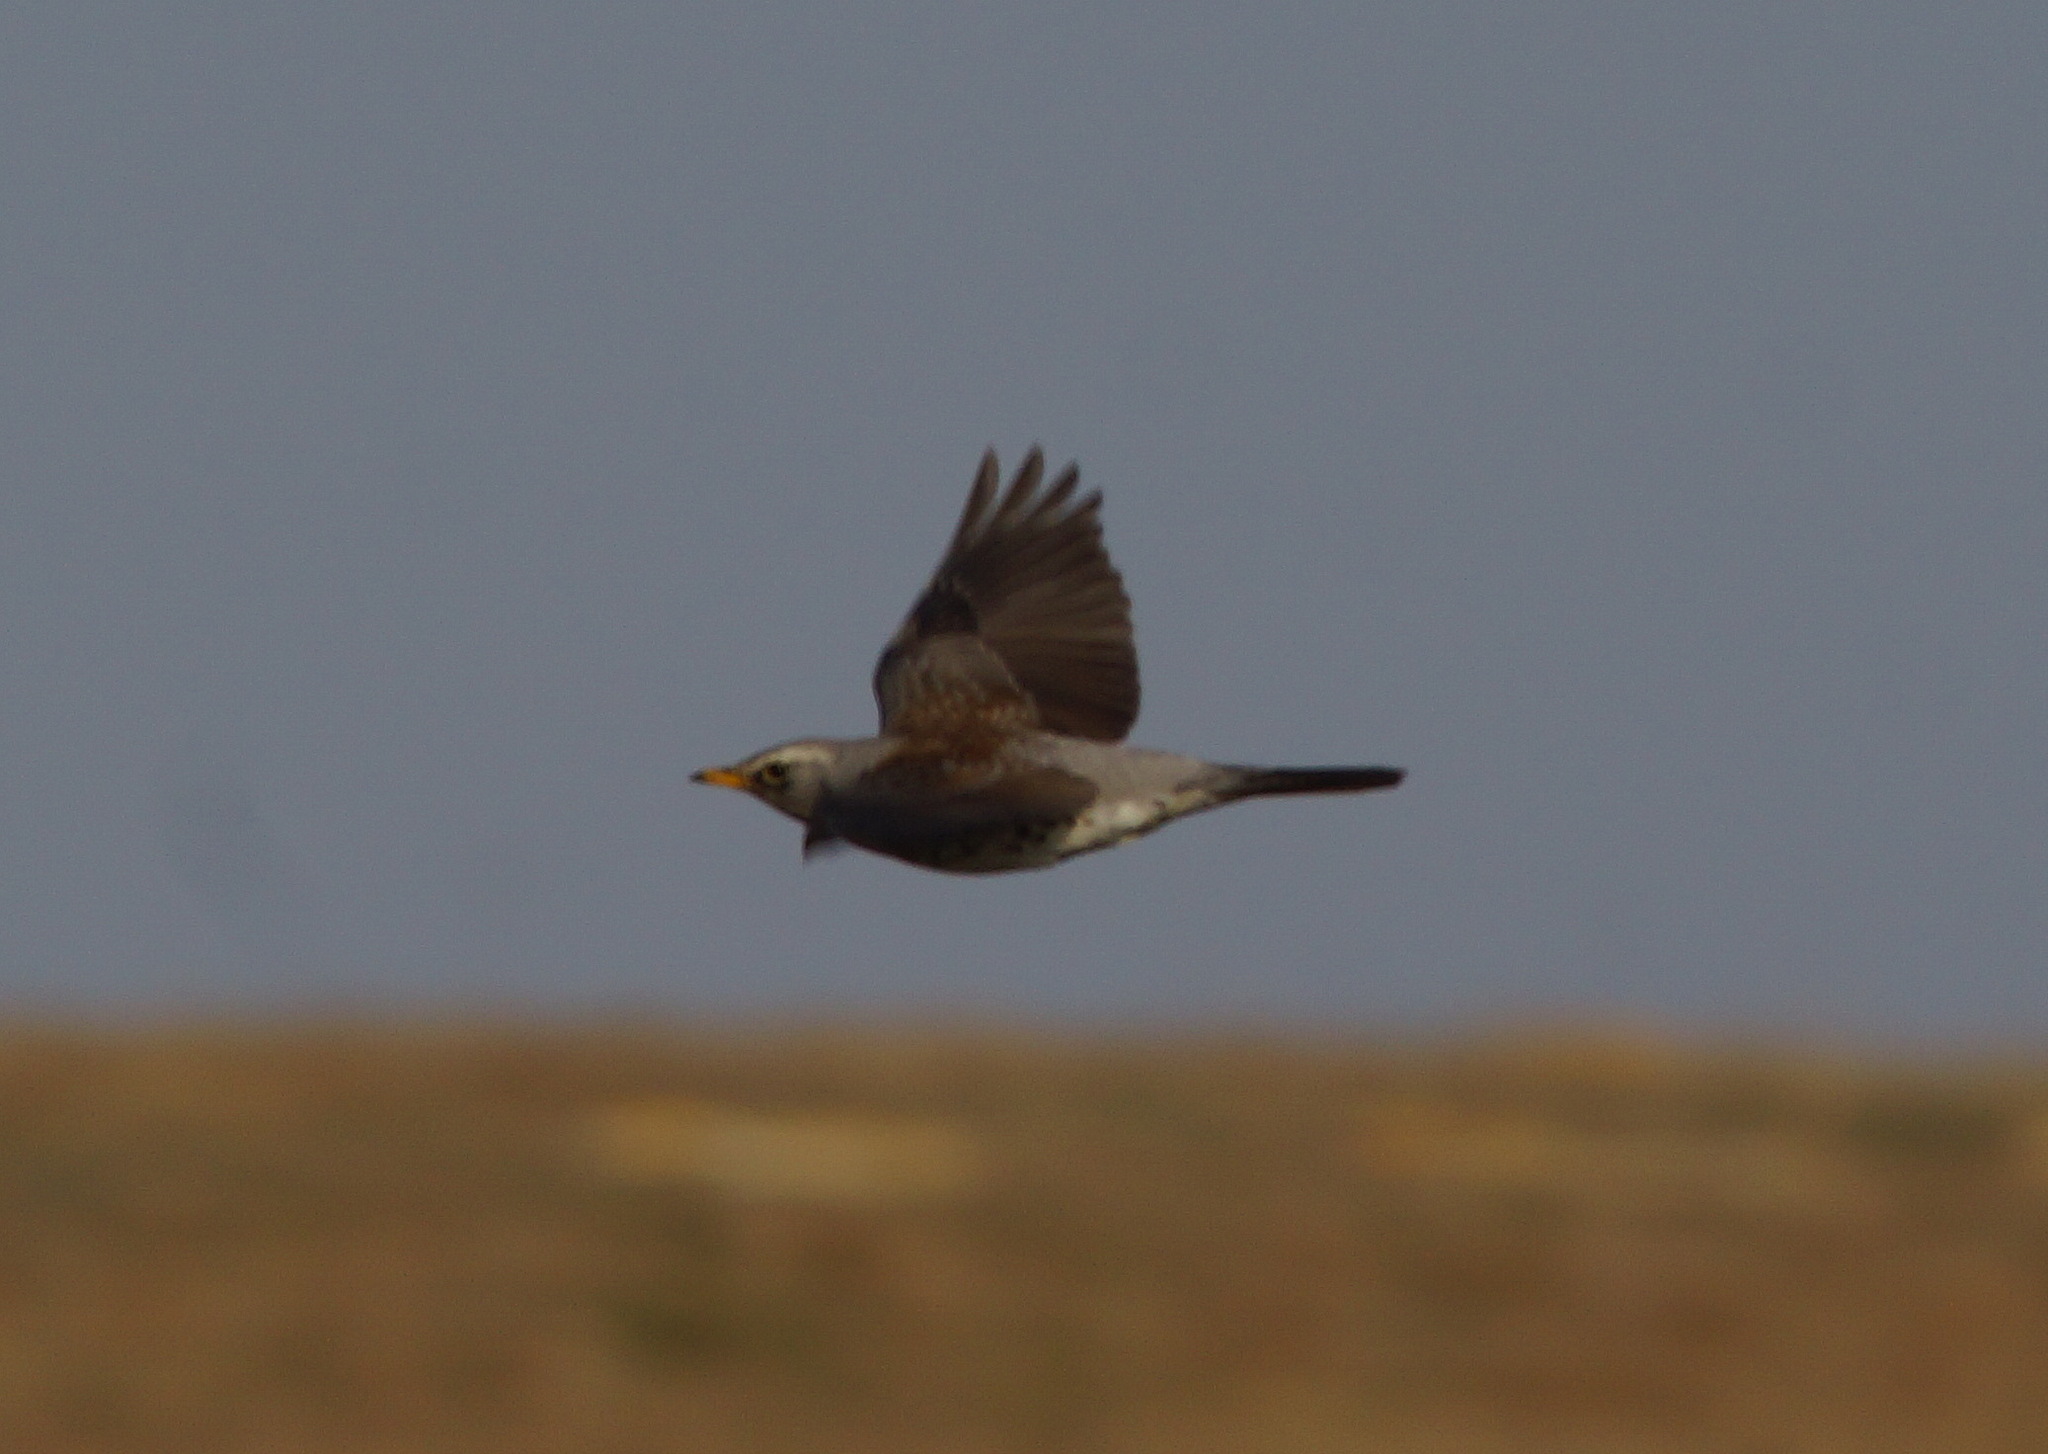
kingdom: Animalia
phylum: Chordata
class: Aves
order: Passeriformes
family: Turdidae
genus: Turdus
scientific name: Turdus pilaris
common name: Fieldfare
